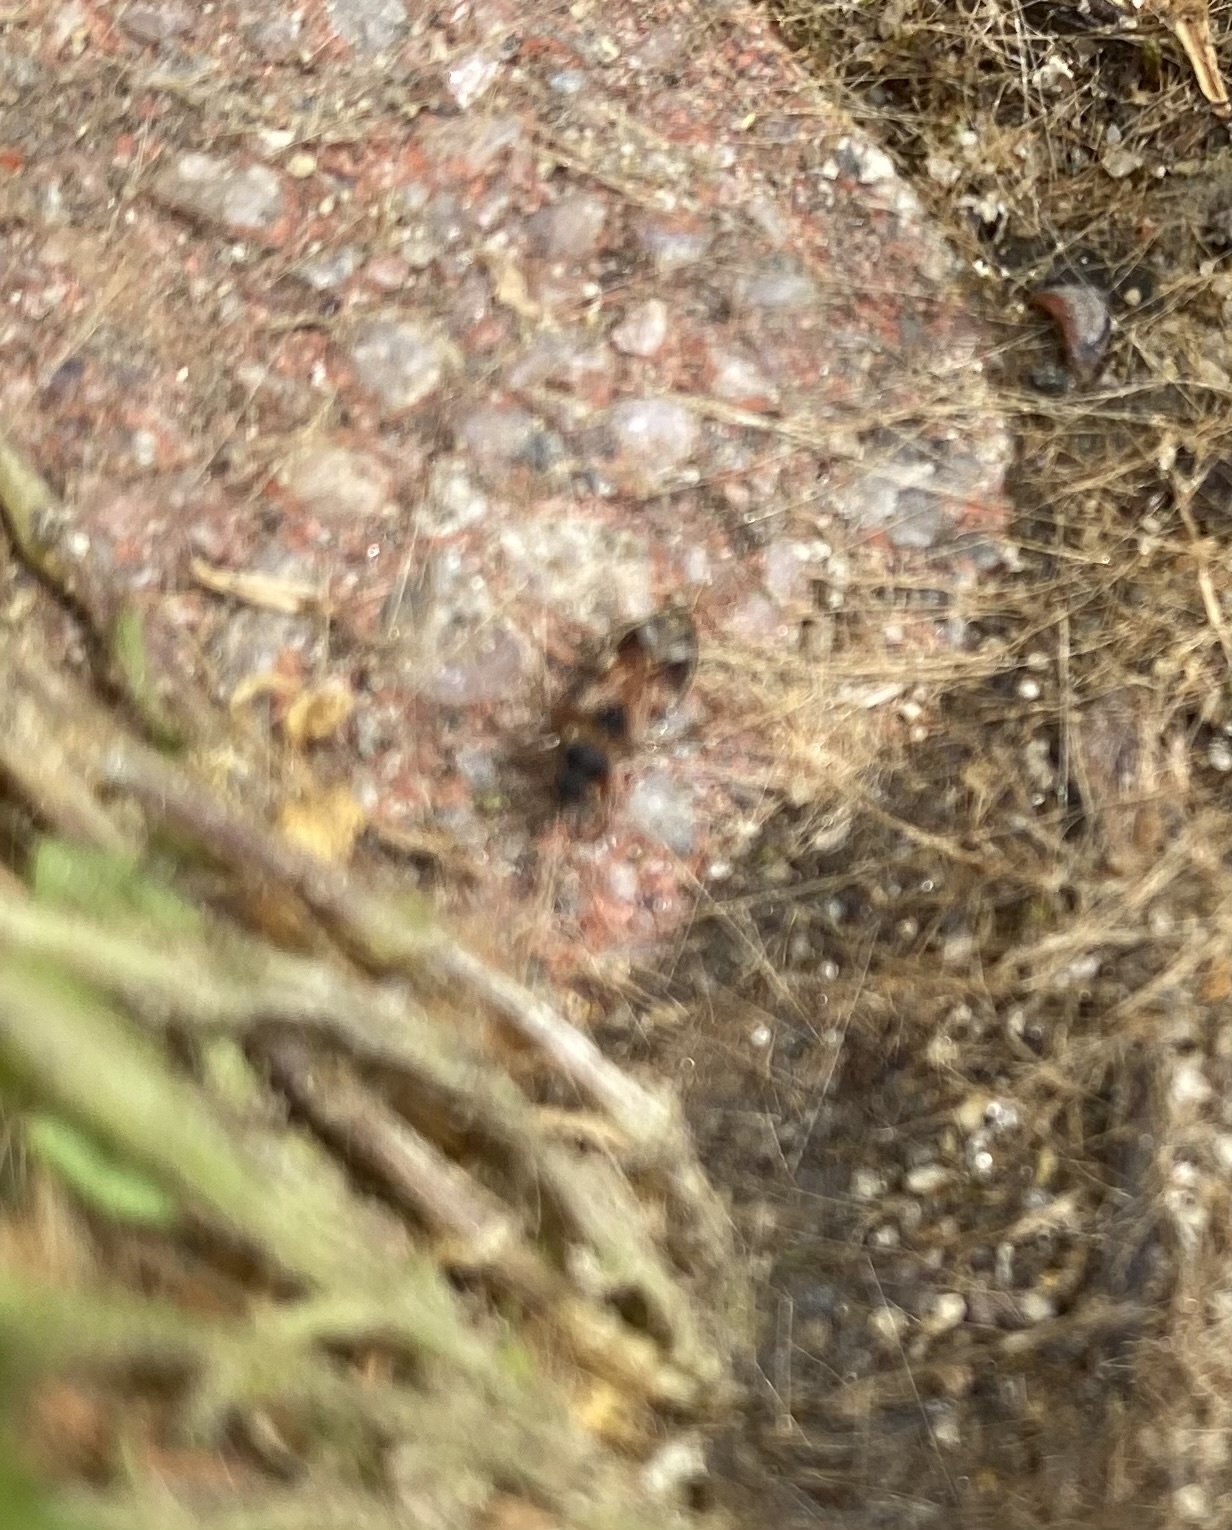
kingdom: Animalia
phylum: Arthropoda
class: Insecta
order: Hemiptera
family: Rhyparochromidae
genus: Scolopostethus
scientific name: Scolopostethus
